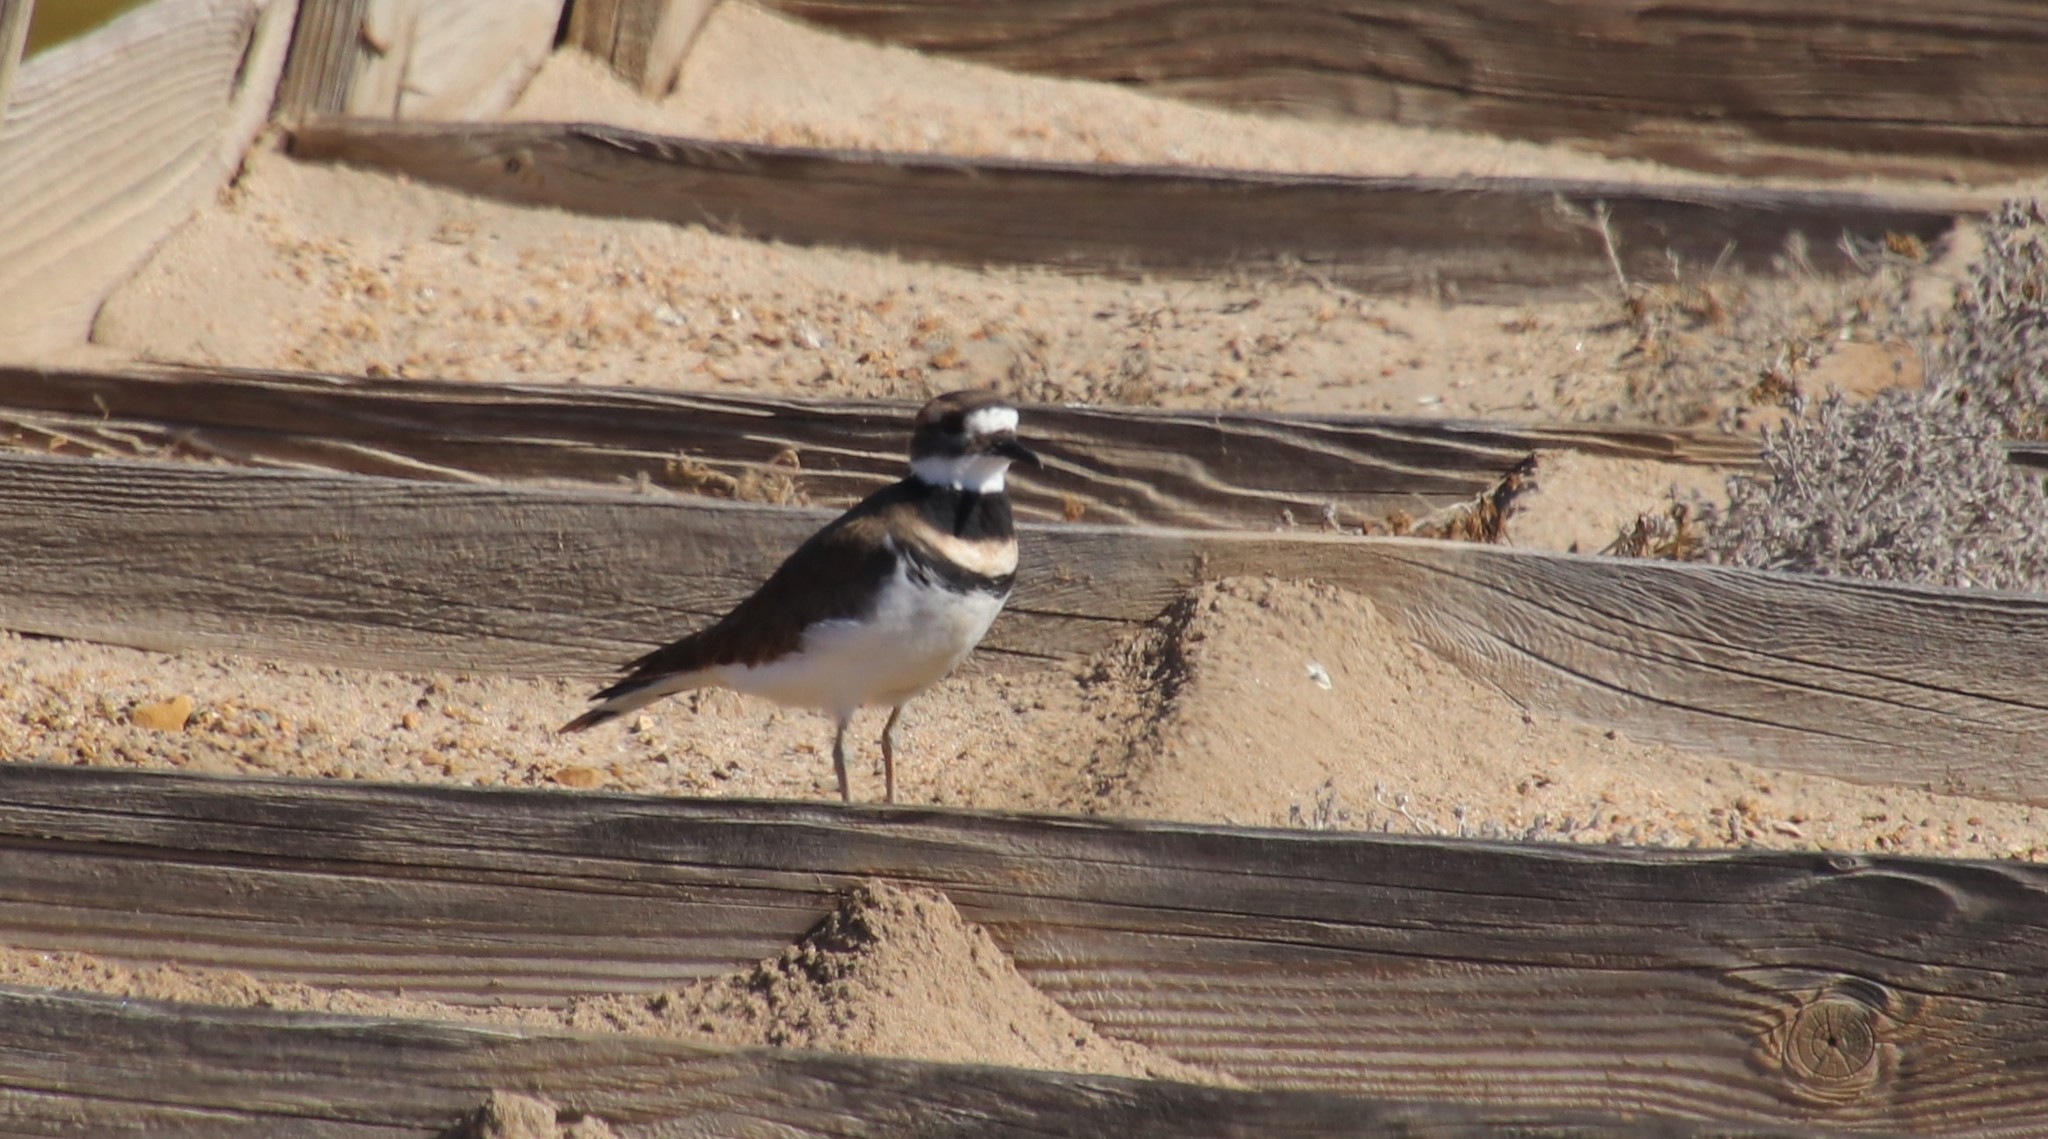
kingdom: Animalia
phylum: Chordata
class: Aves
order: Charadriiformes
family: Charadriidae
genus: Charadrius
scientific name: Charadrius vociferus
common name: Killdeer
